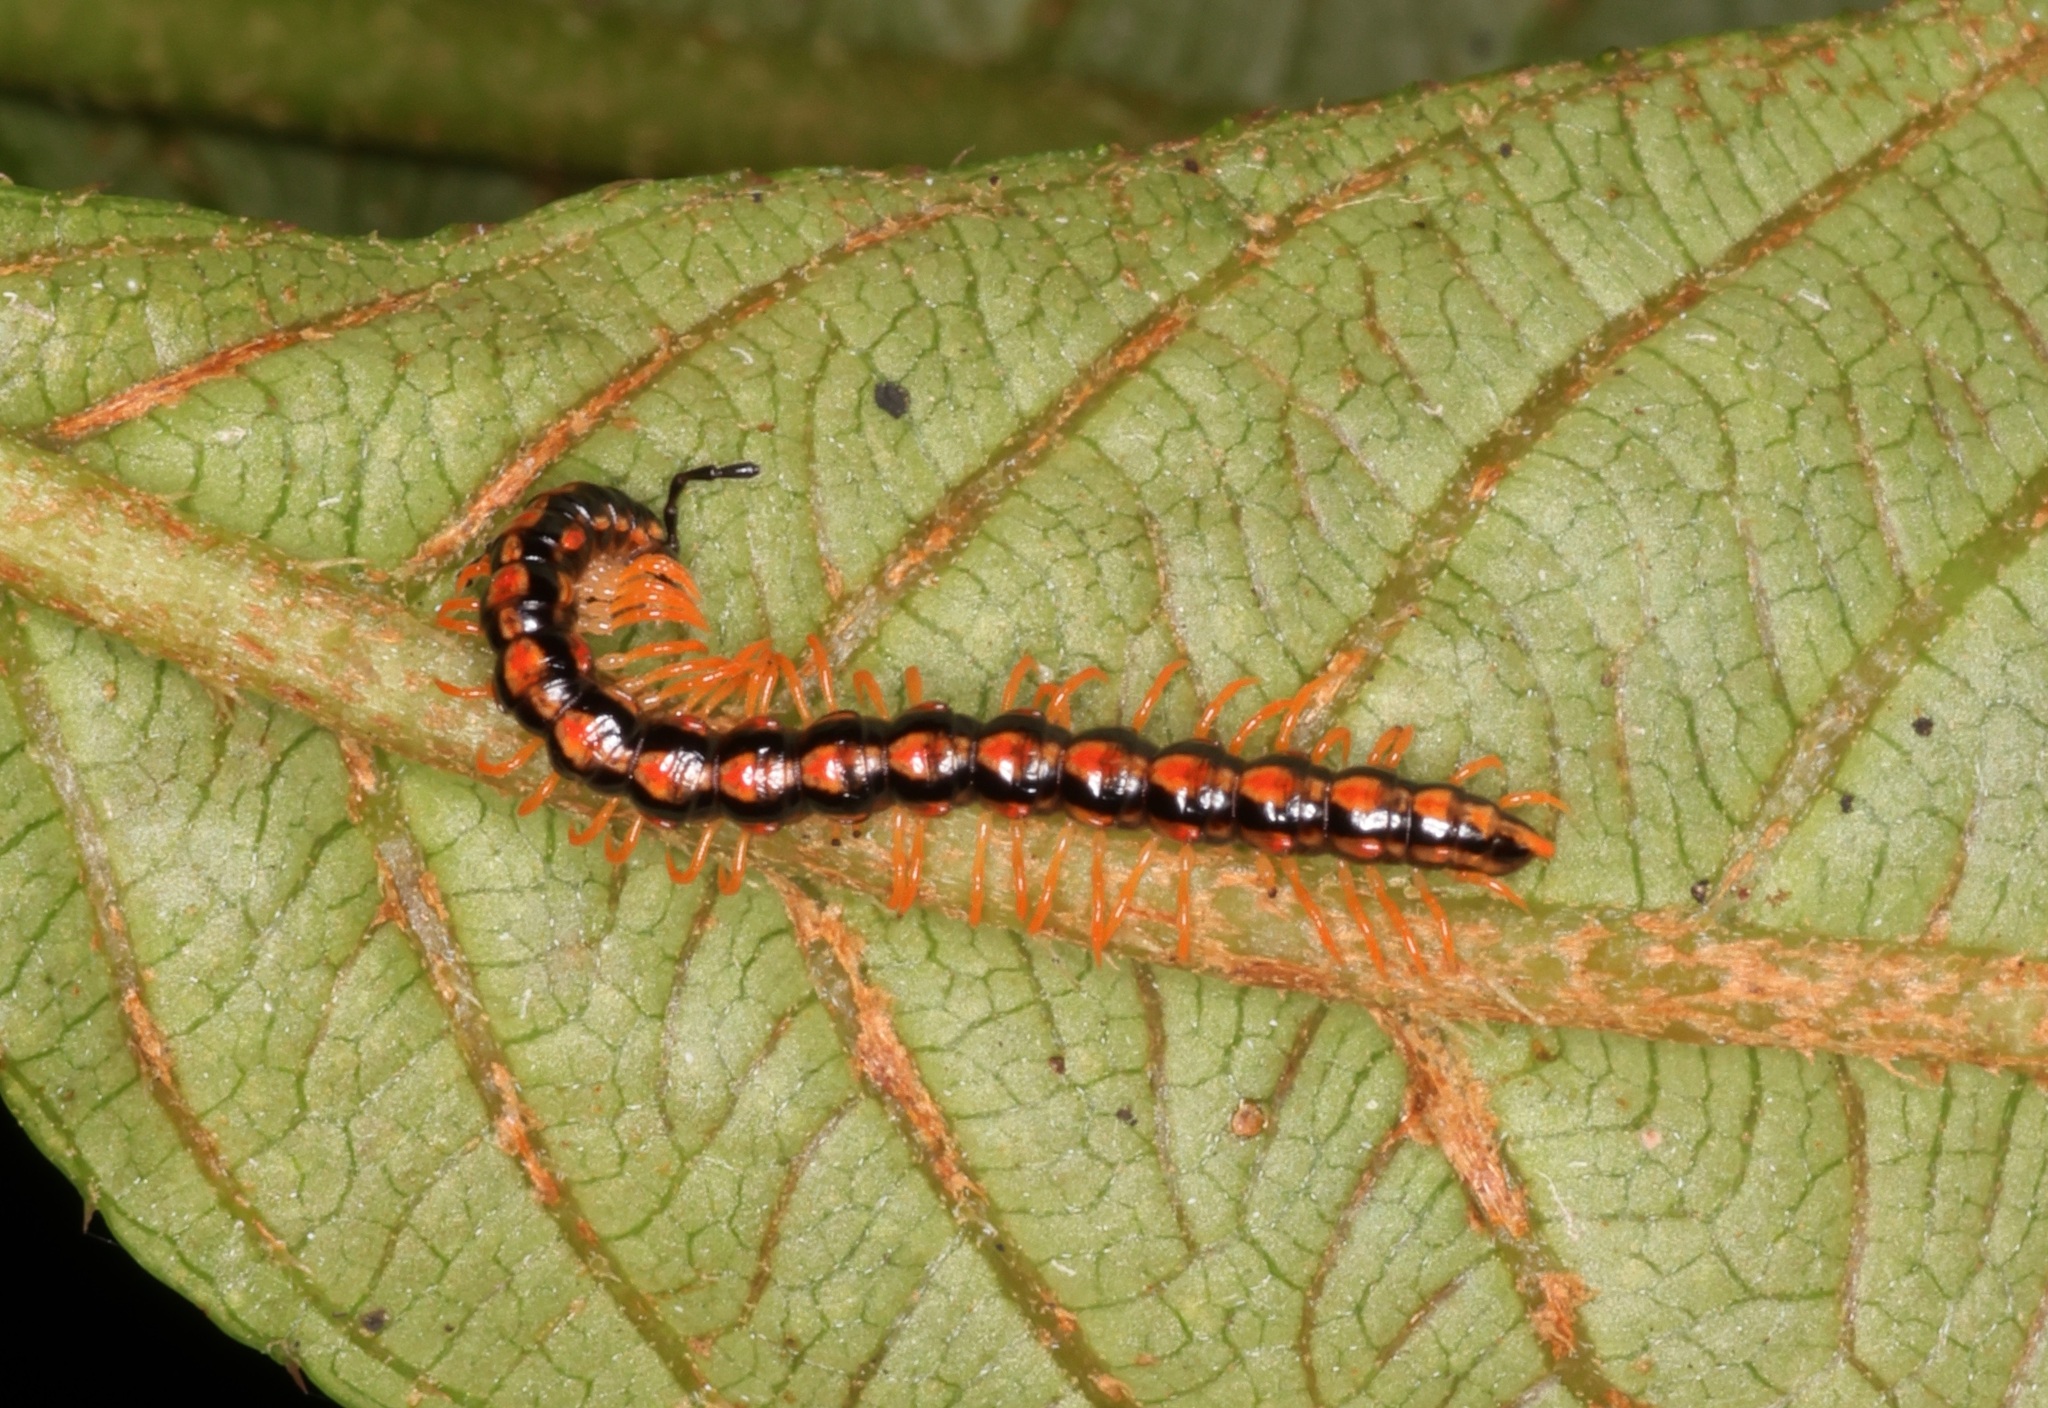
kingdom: Animalia
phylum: Arthropoda
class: Diplopoda
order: Polydesmida
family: Paradoxosomatidae
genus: Helicorthomorpha
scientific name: Helicorthomorpha holstii
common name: Millipede
